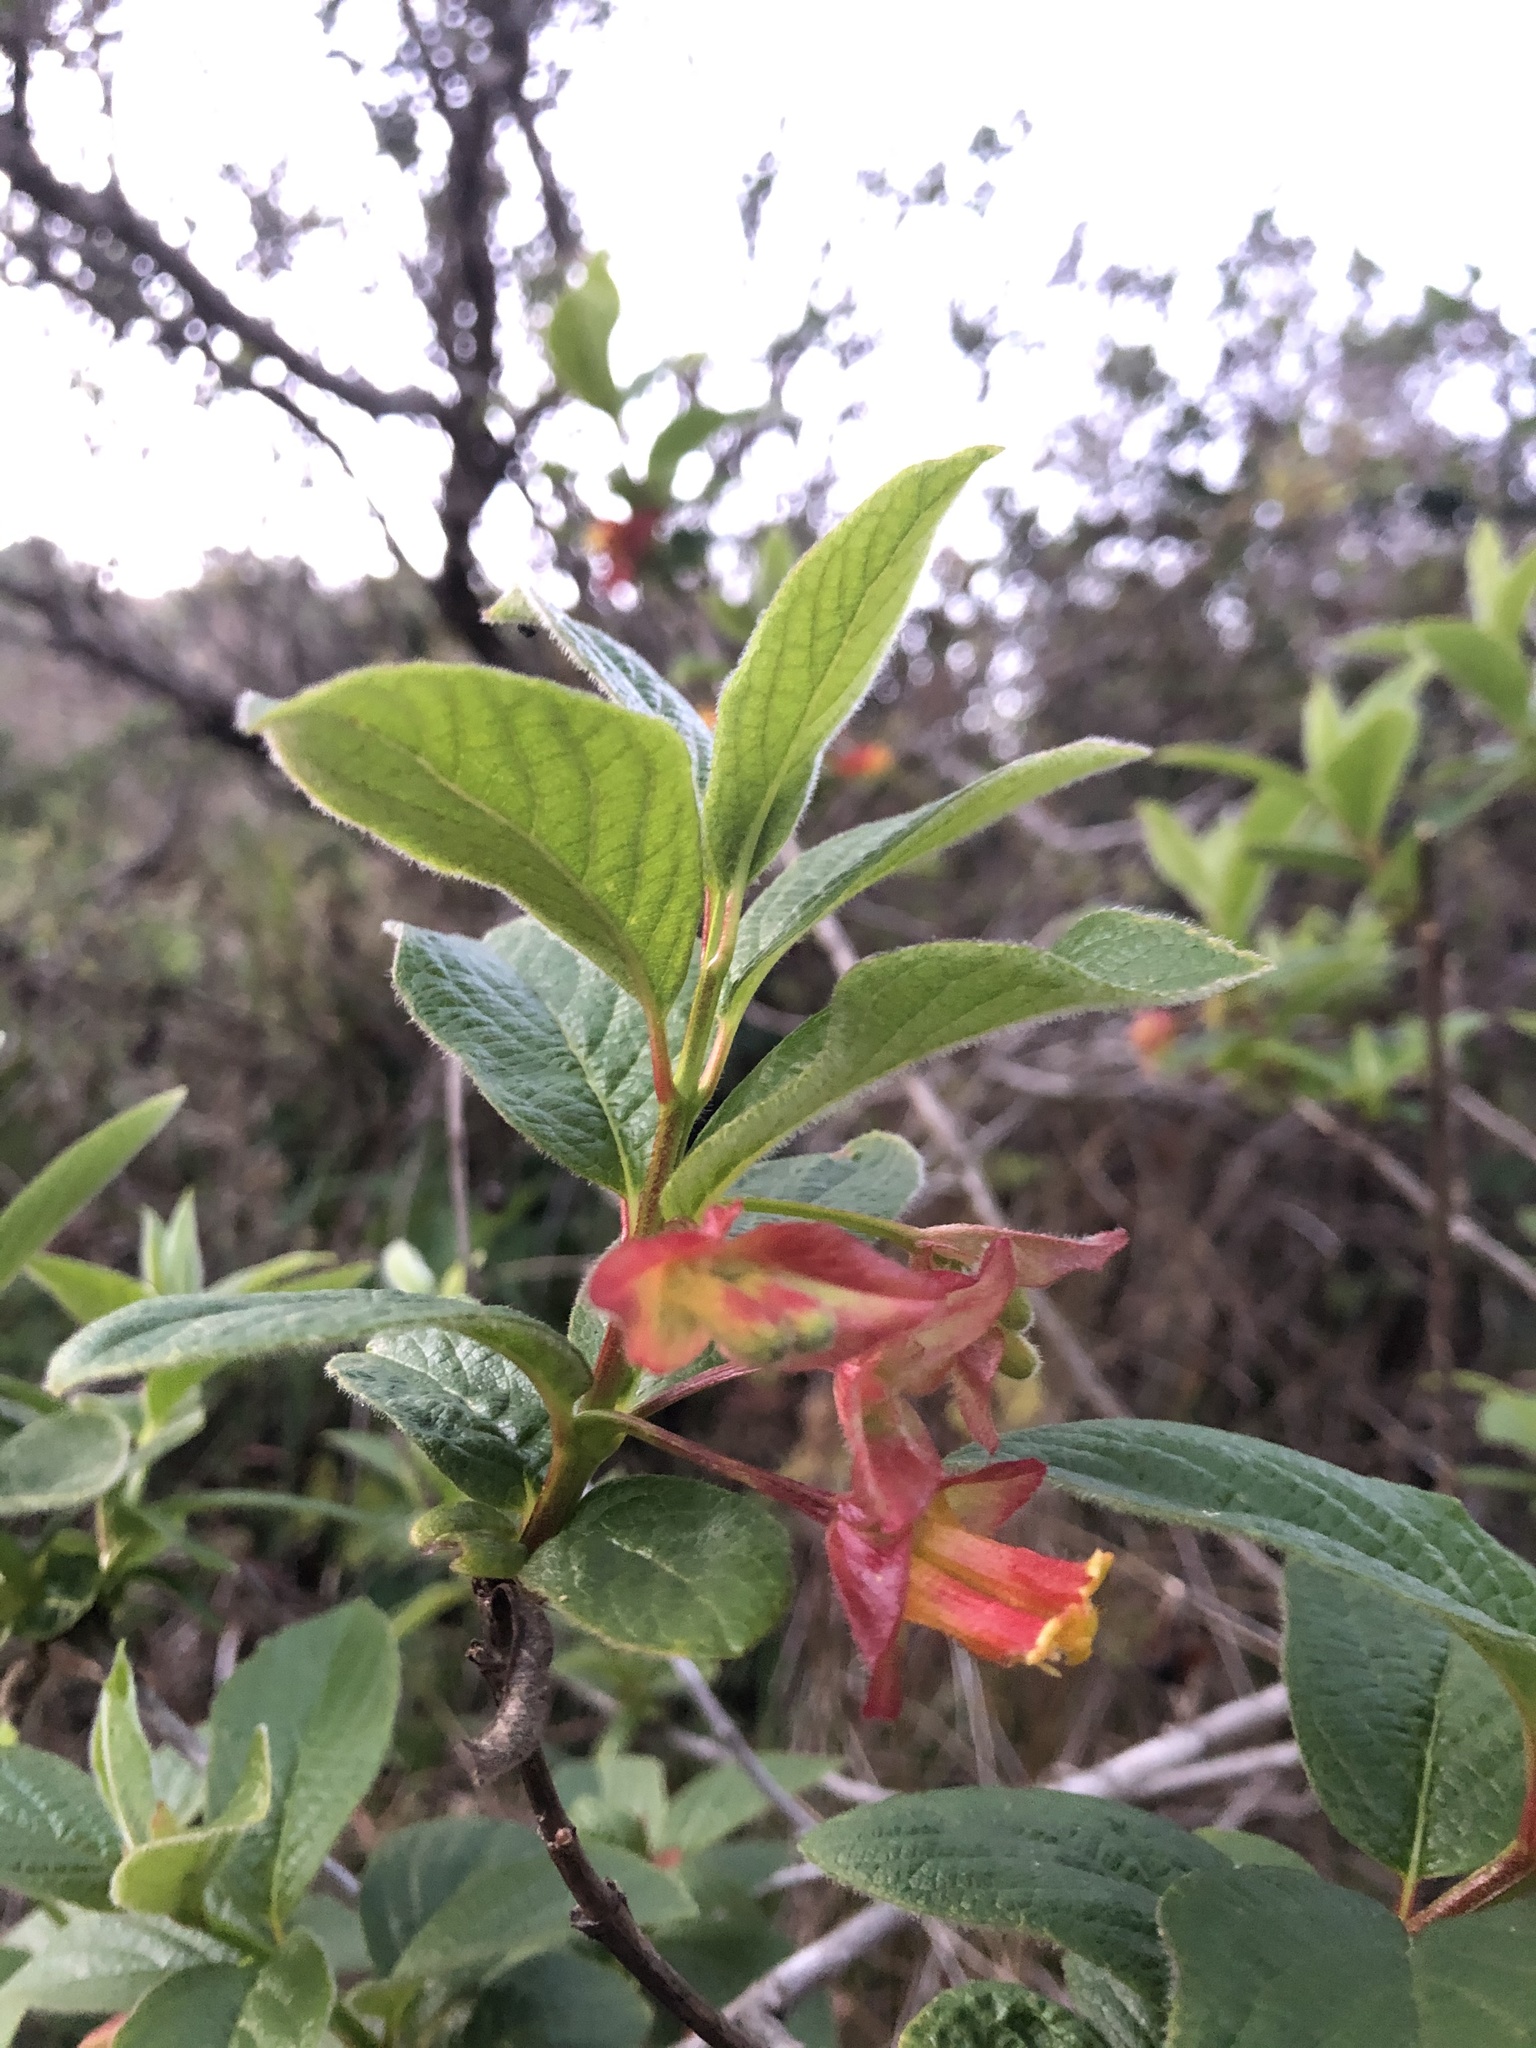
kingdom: Plantae
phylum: Tracheophyta
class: Magnoliopsida
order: Dipsacales
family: Caprifoliaceae
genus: Lonicera
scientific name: Lonicera involucrata
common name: Californian honeysuckle
